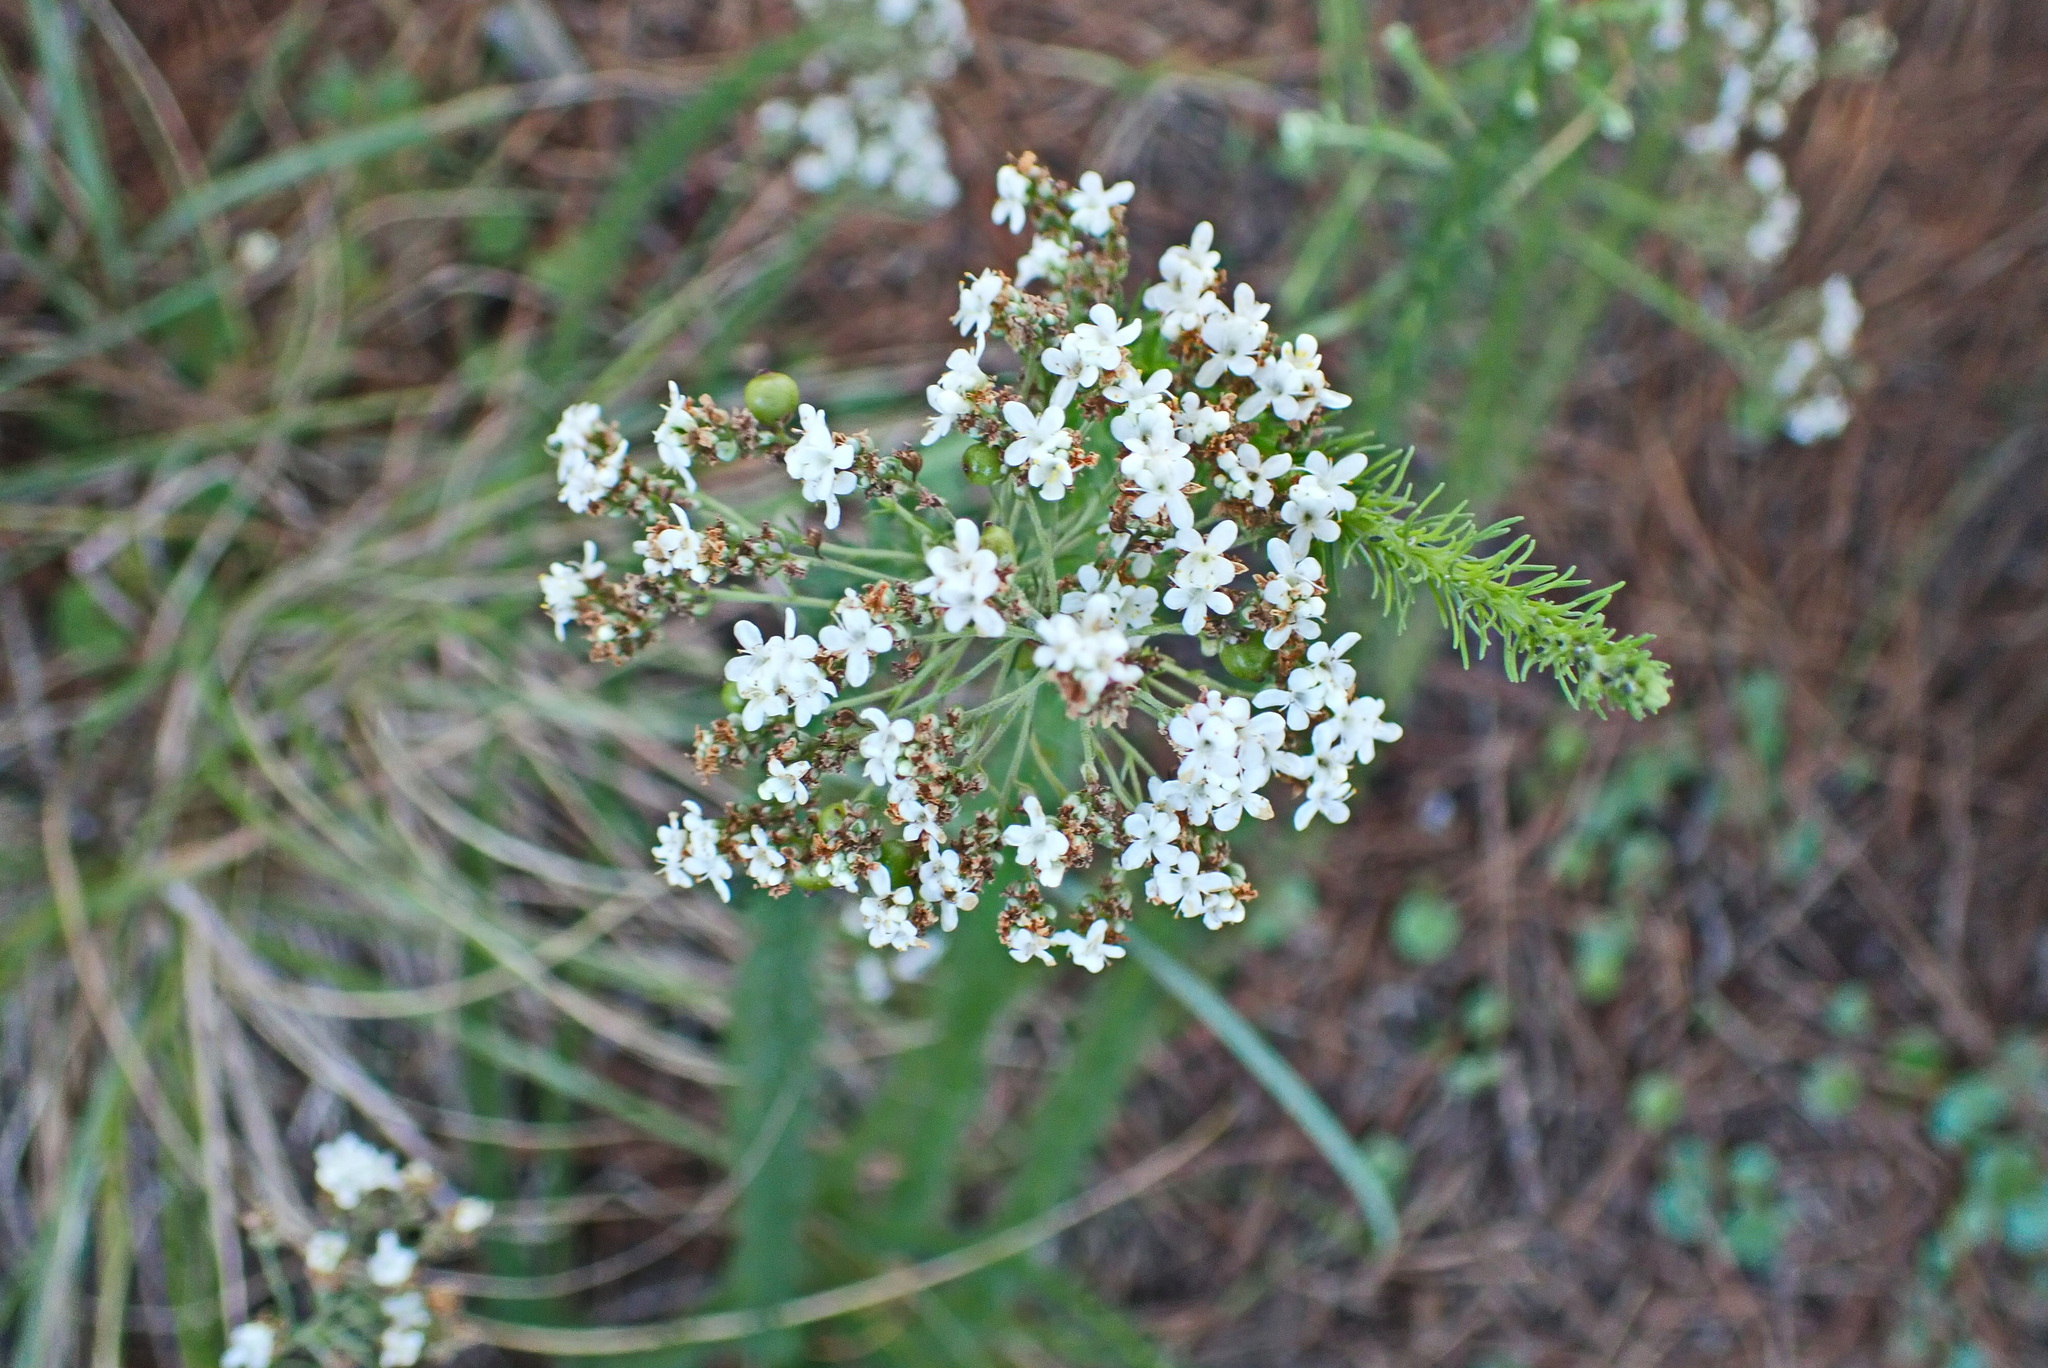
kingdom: Plantae
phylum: Tracheophyta
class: Magnoliopsida
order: Lamiales
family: Scrophulariaceae
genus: Selago
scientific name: Selago corymbosa
